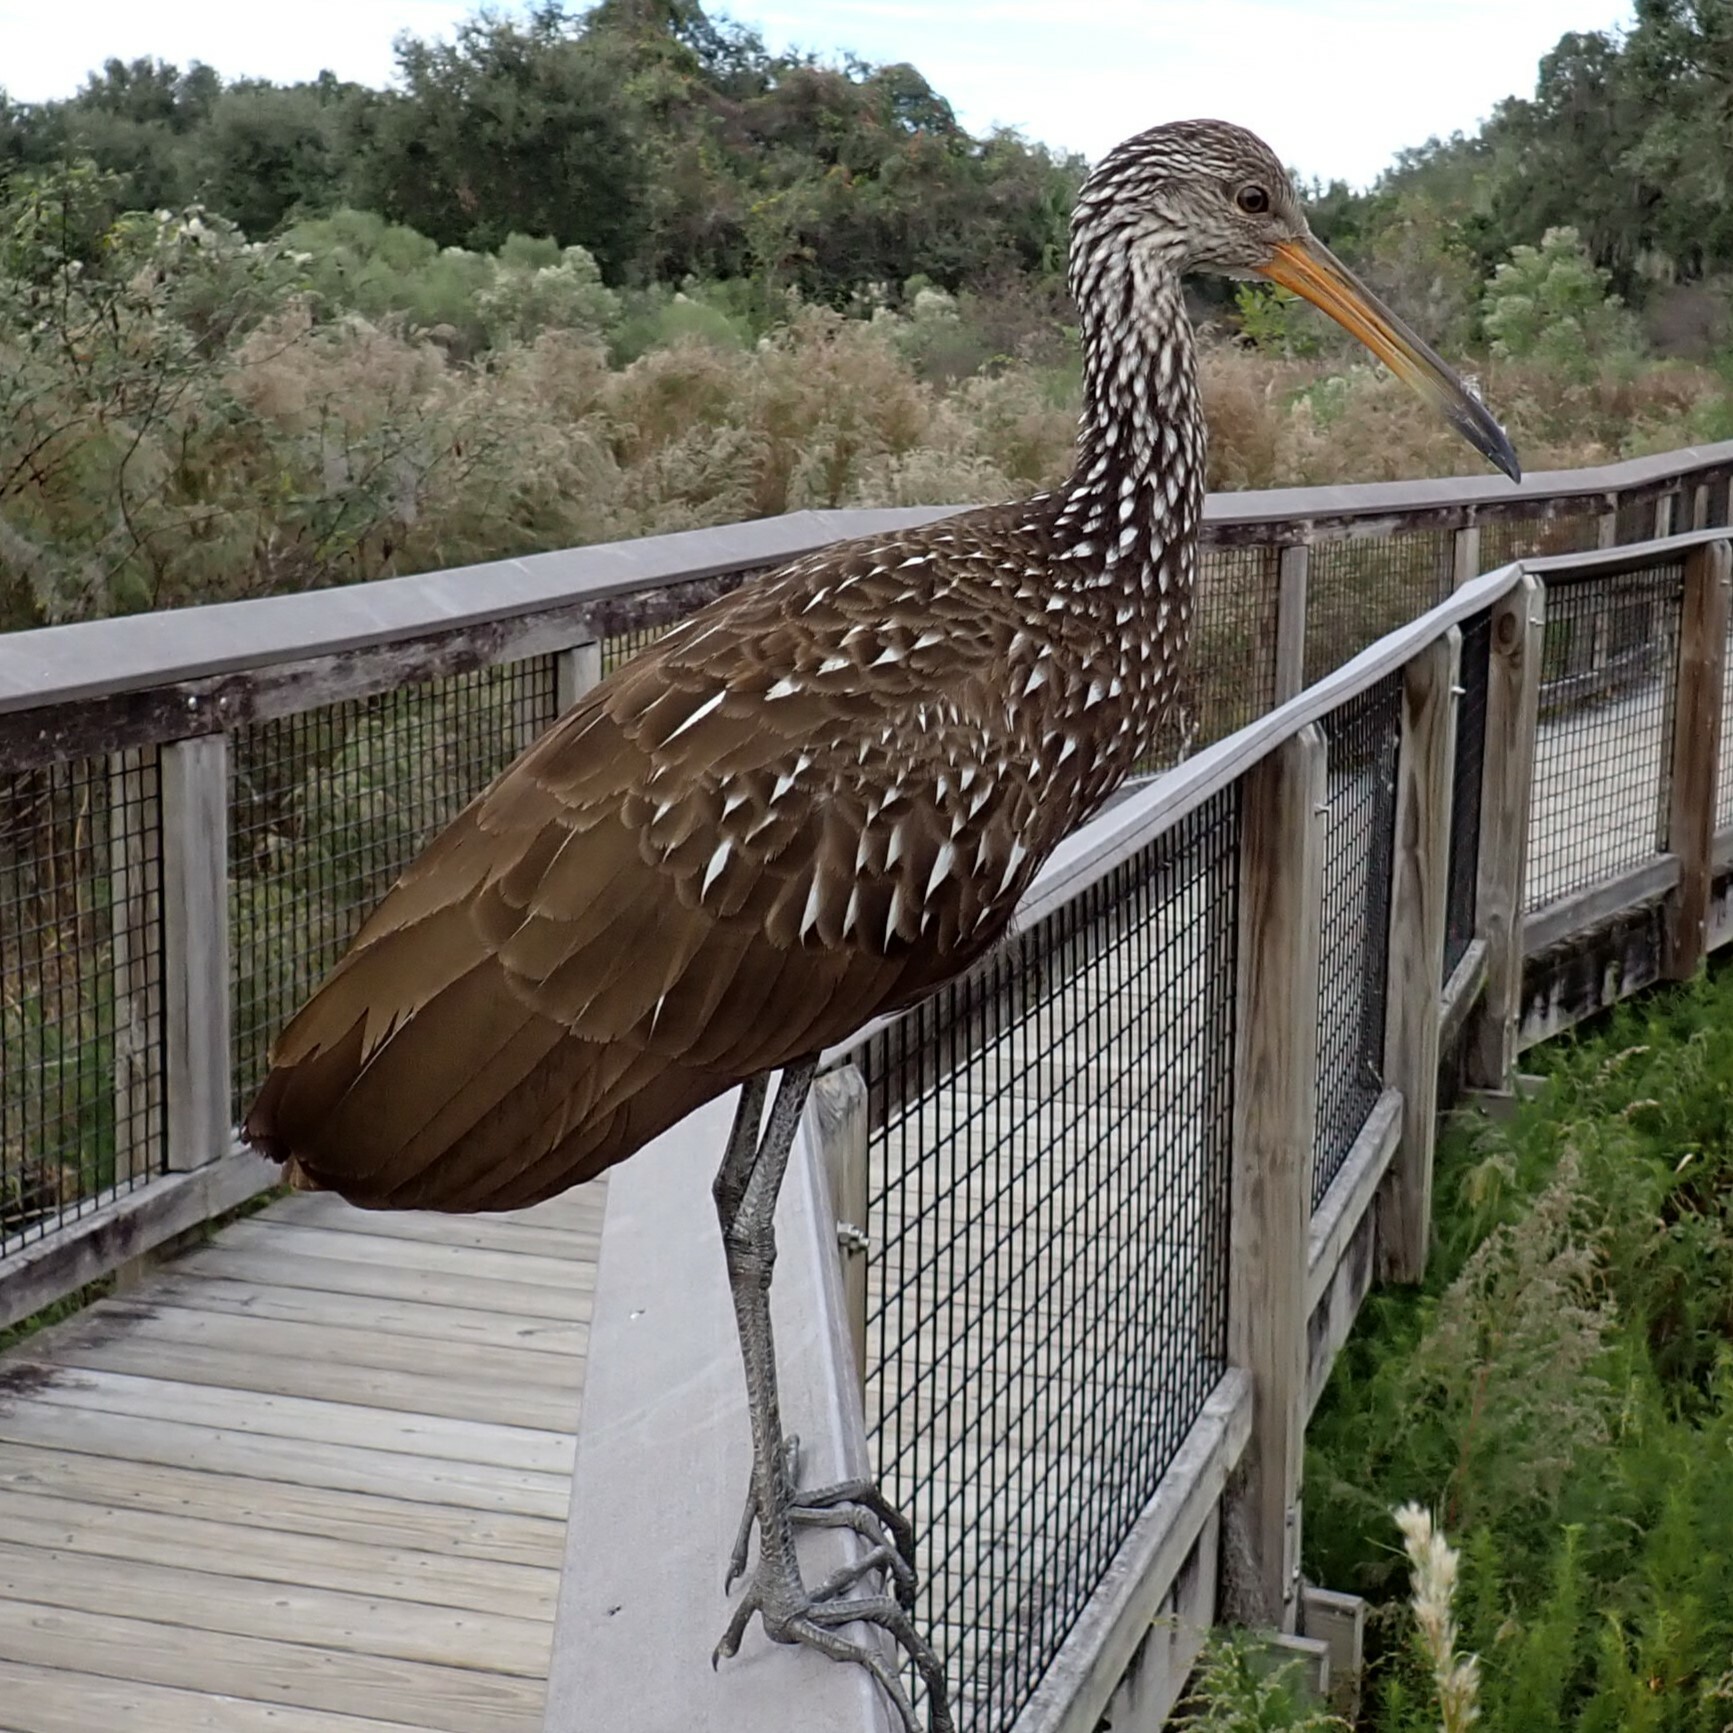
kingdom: Animalia
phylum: Chordata
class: Aves
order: Gruiformes
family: Aramidae
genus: Aramus
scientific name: Aramus guarauna
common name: Limpkin
